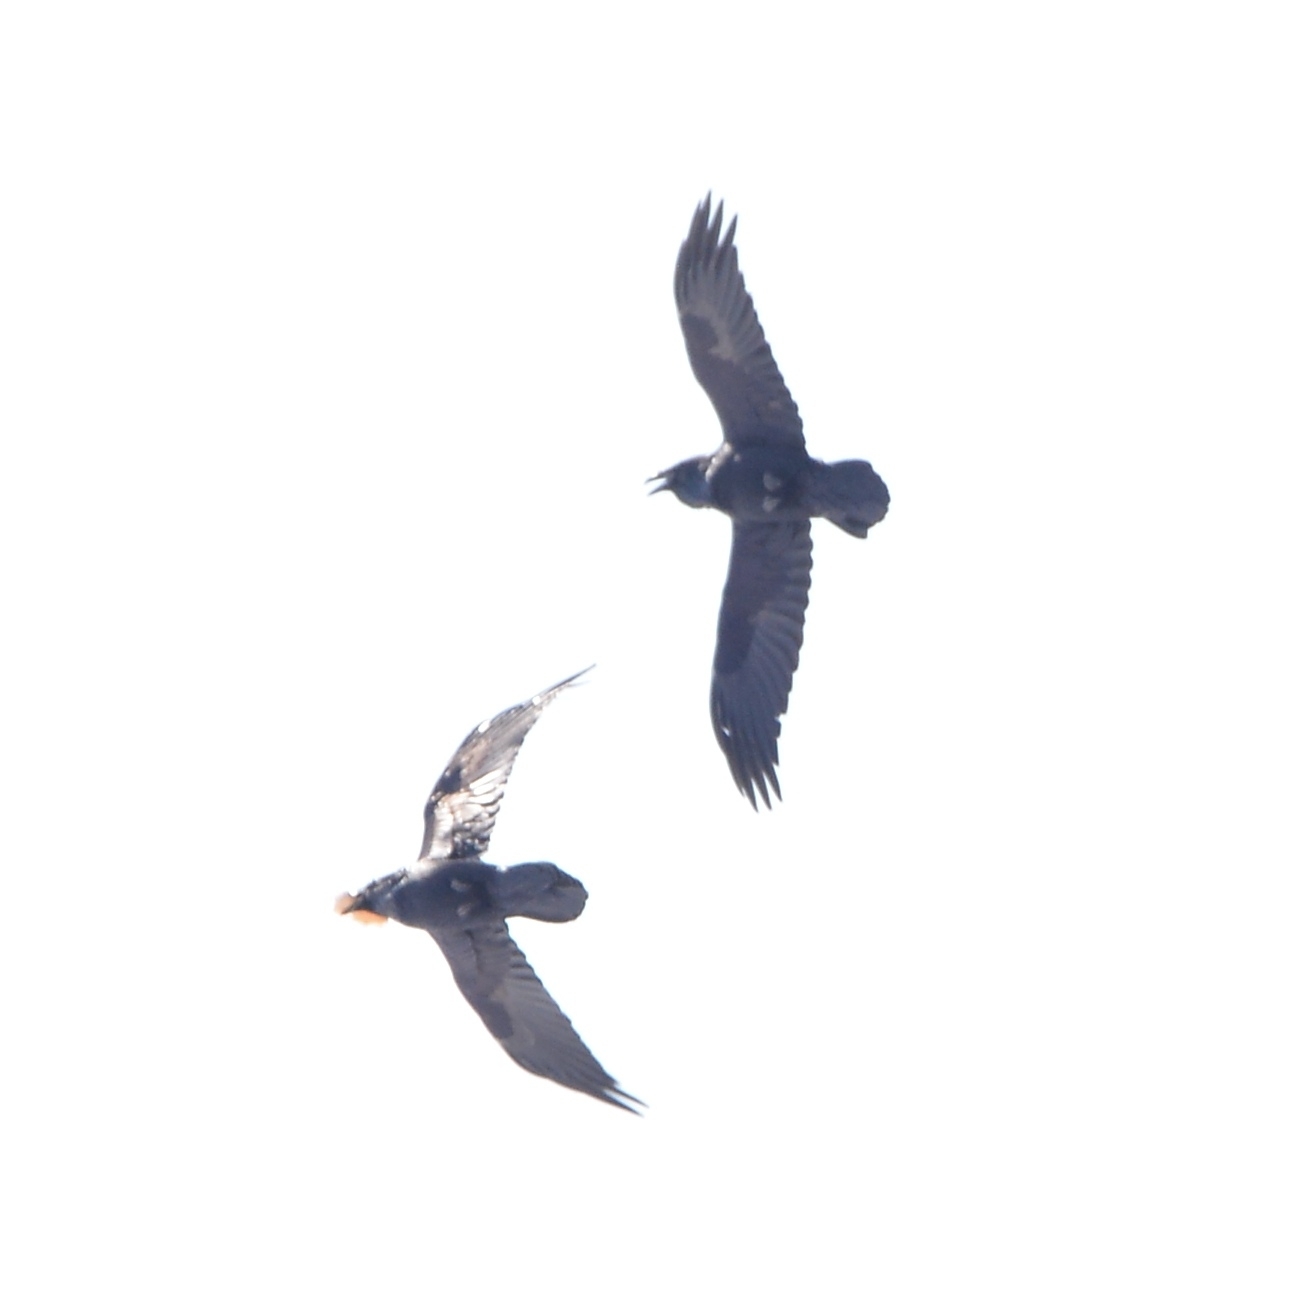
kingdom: Animalia
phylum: Chordata
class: Aves
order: Passeriformes
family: Corvidae
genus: Corvus
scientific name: Corvus corax
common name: Common raven
